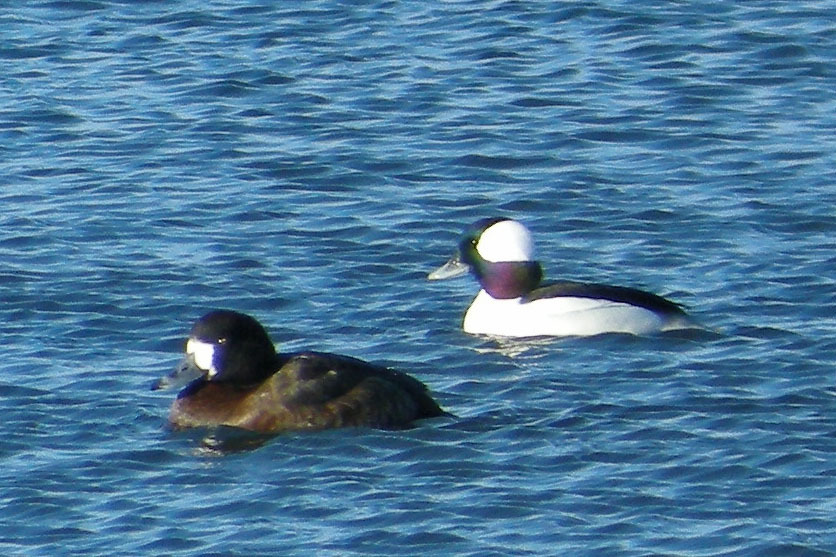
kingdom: Animalia
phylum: Chordata
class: Aves
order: Anseriformes
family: Anatidae
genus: Bucephala
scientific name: Bucephala albeola
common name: Bufflehead
